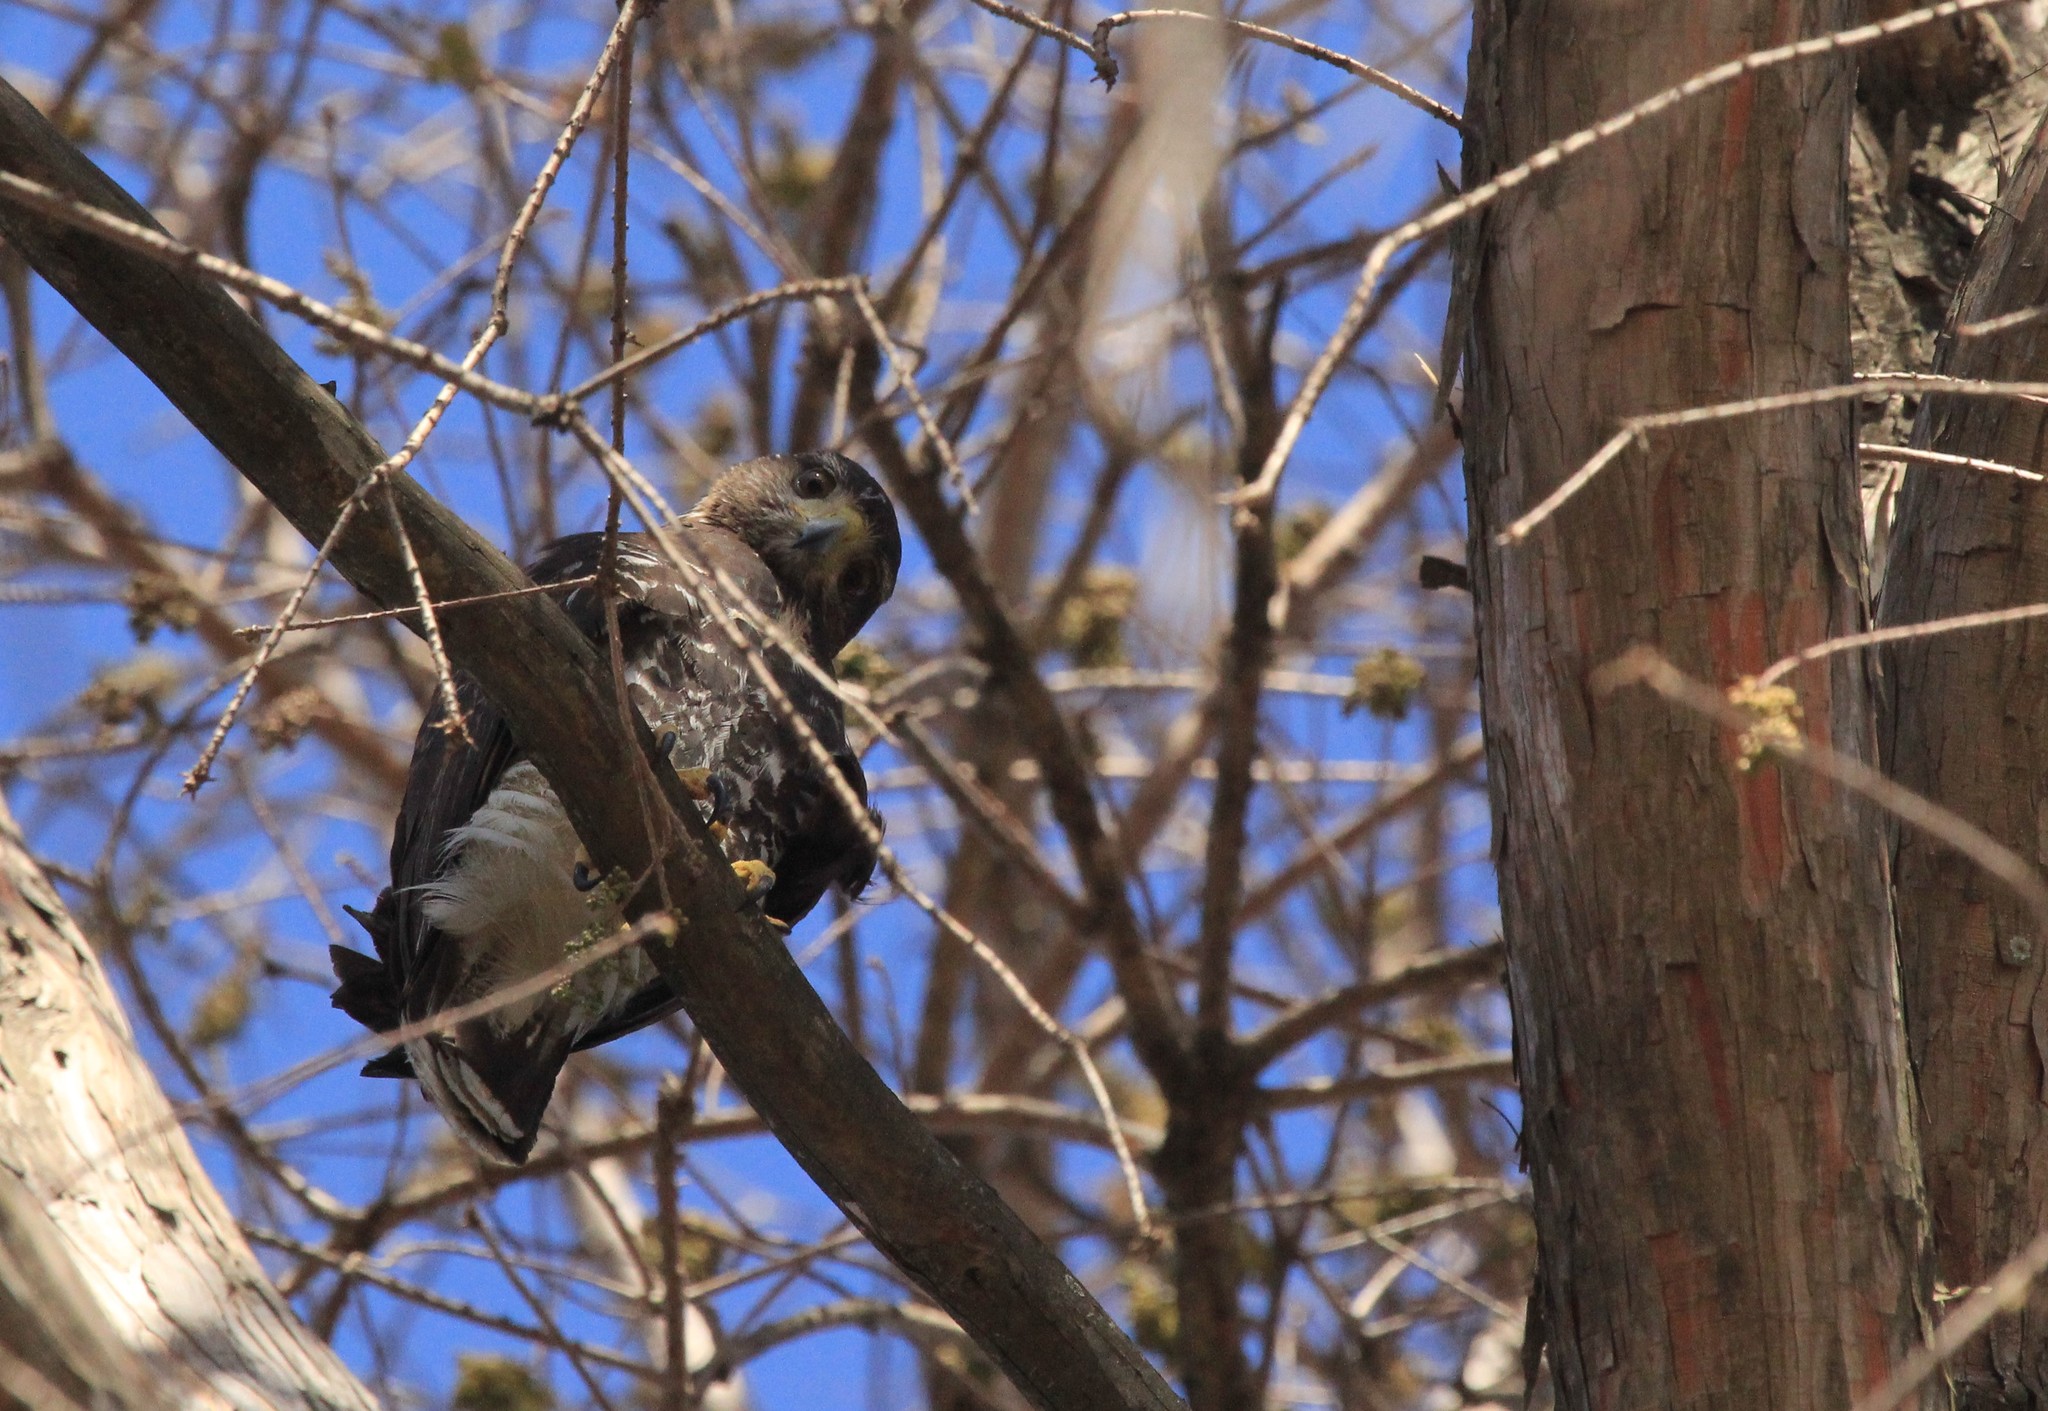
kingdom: Animalia
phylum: Chordata
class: Aves
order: Accipitriformes
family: Accipitridae
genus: Parabuteo
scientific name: Parabuteo unicinctus
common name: Harris's hawk
